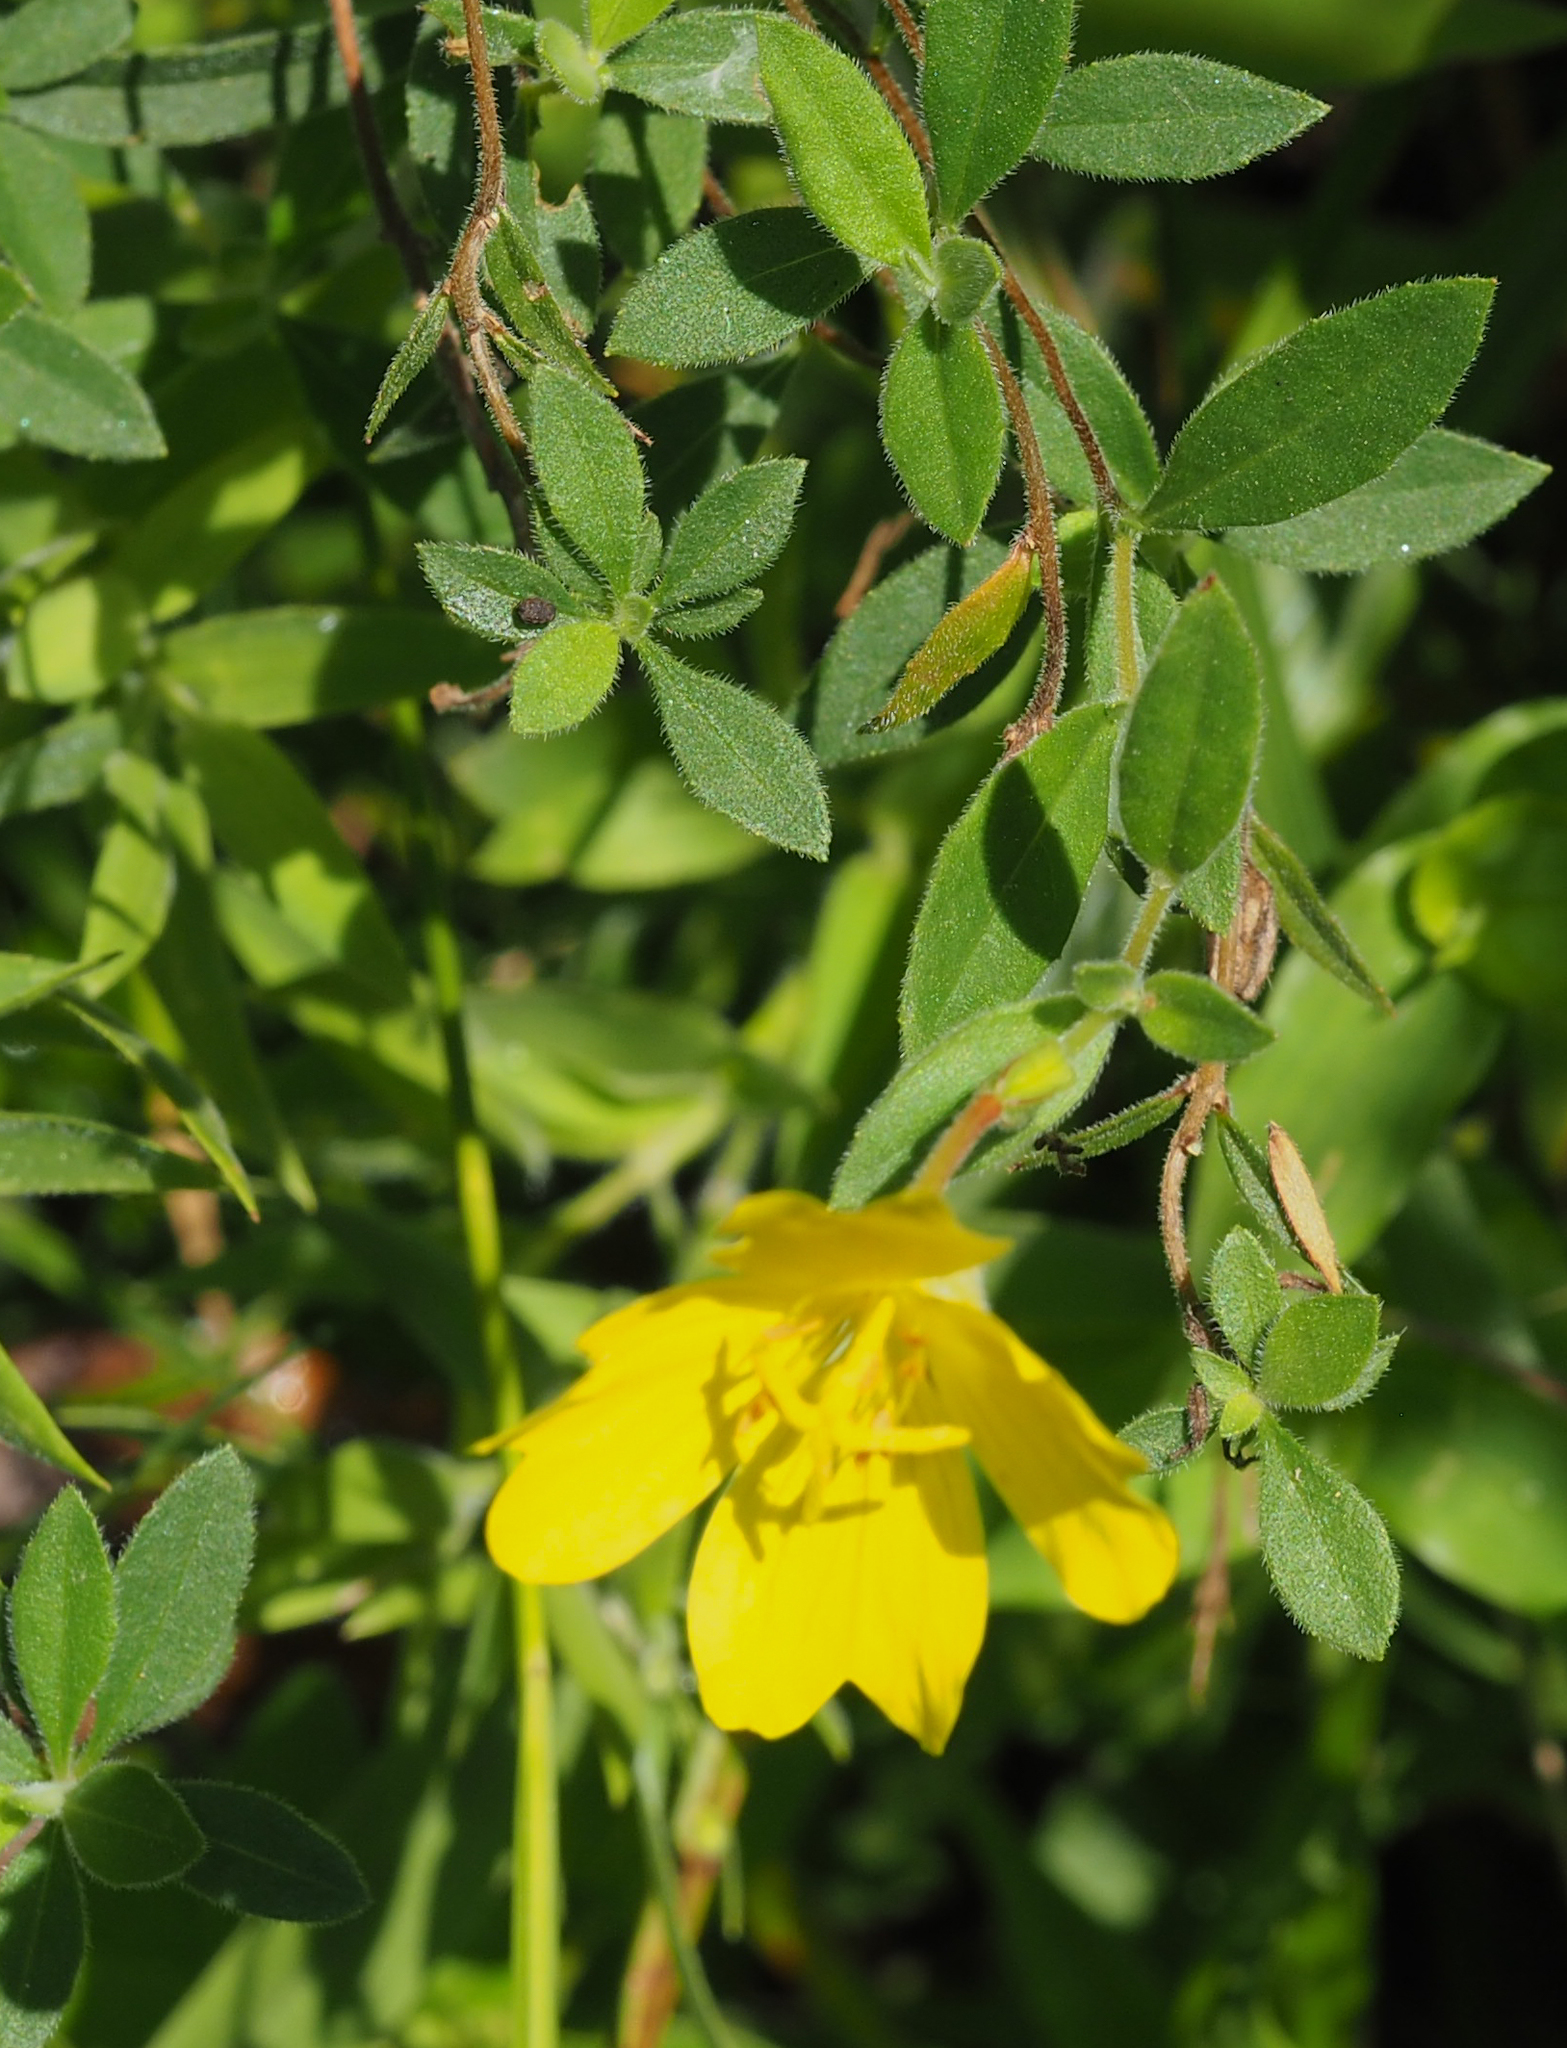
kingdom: Plantae
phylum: Tracheophyta
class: Magnoliopsida
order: Myrtales
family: Onagraceae
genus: Oenothera
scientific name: Oenothera fruticosa
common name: Southern sundrops
